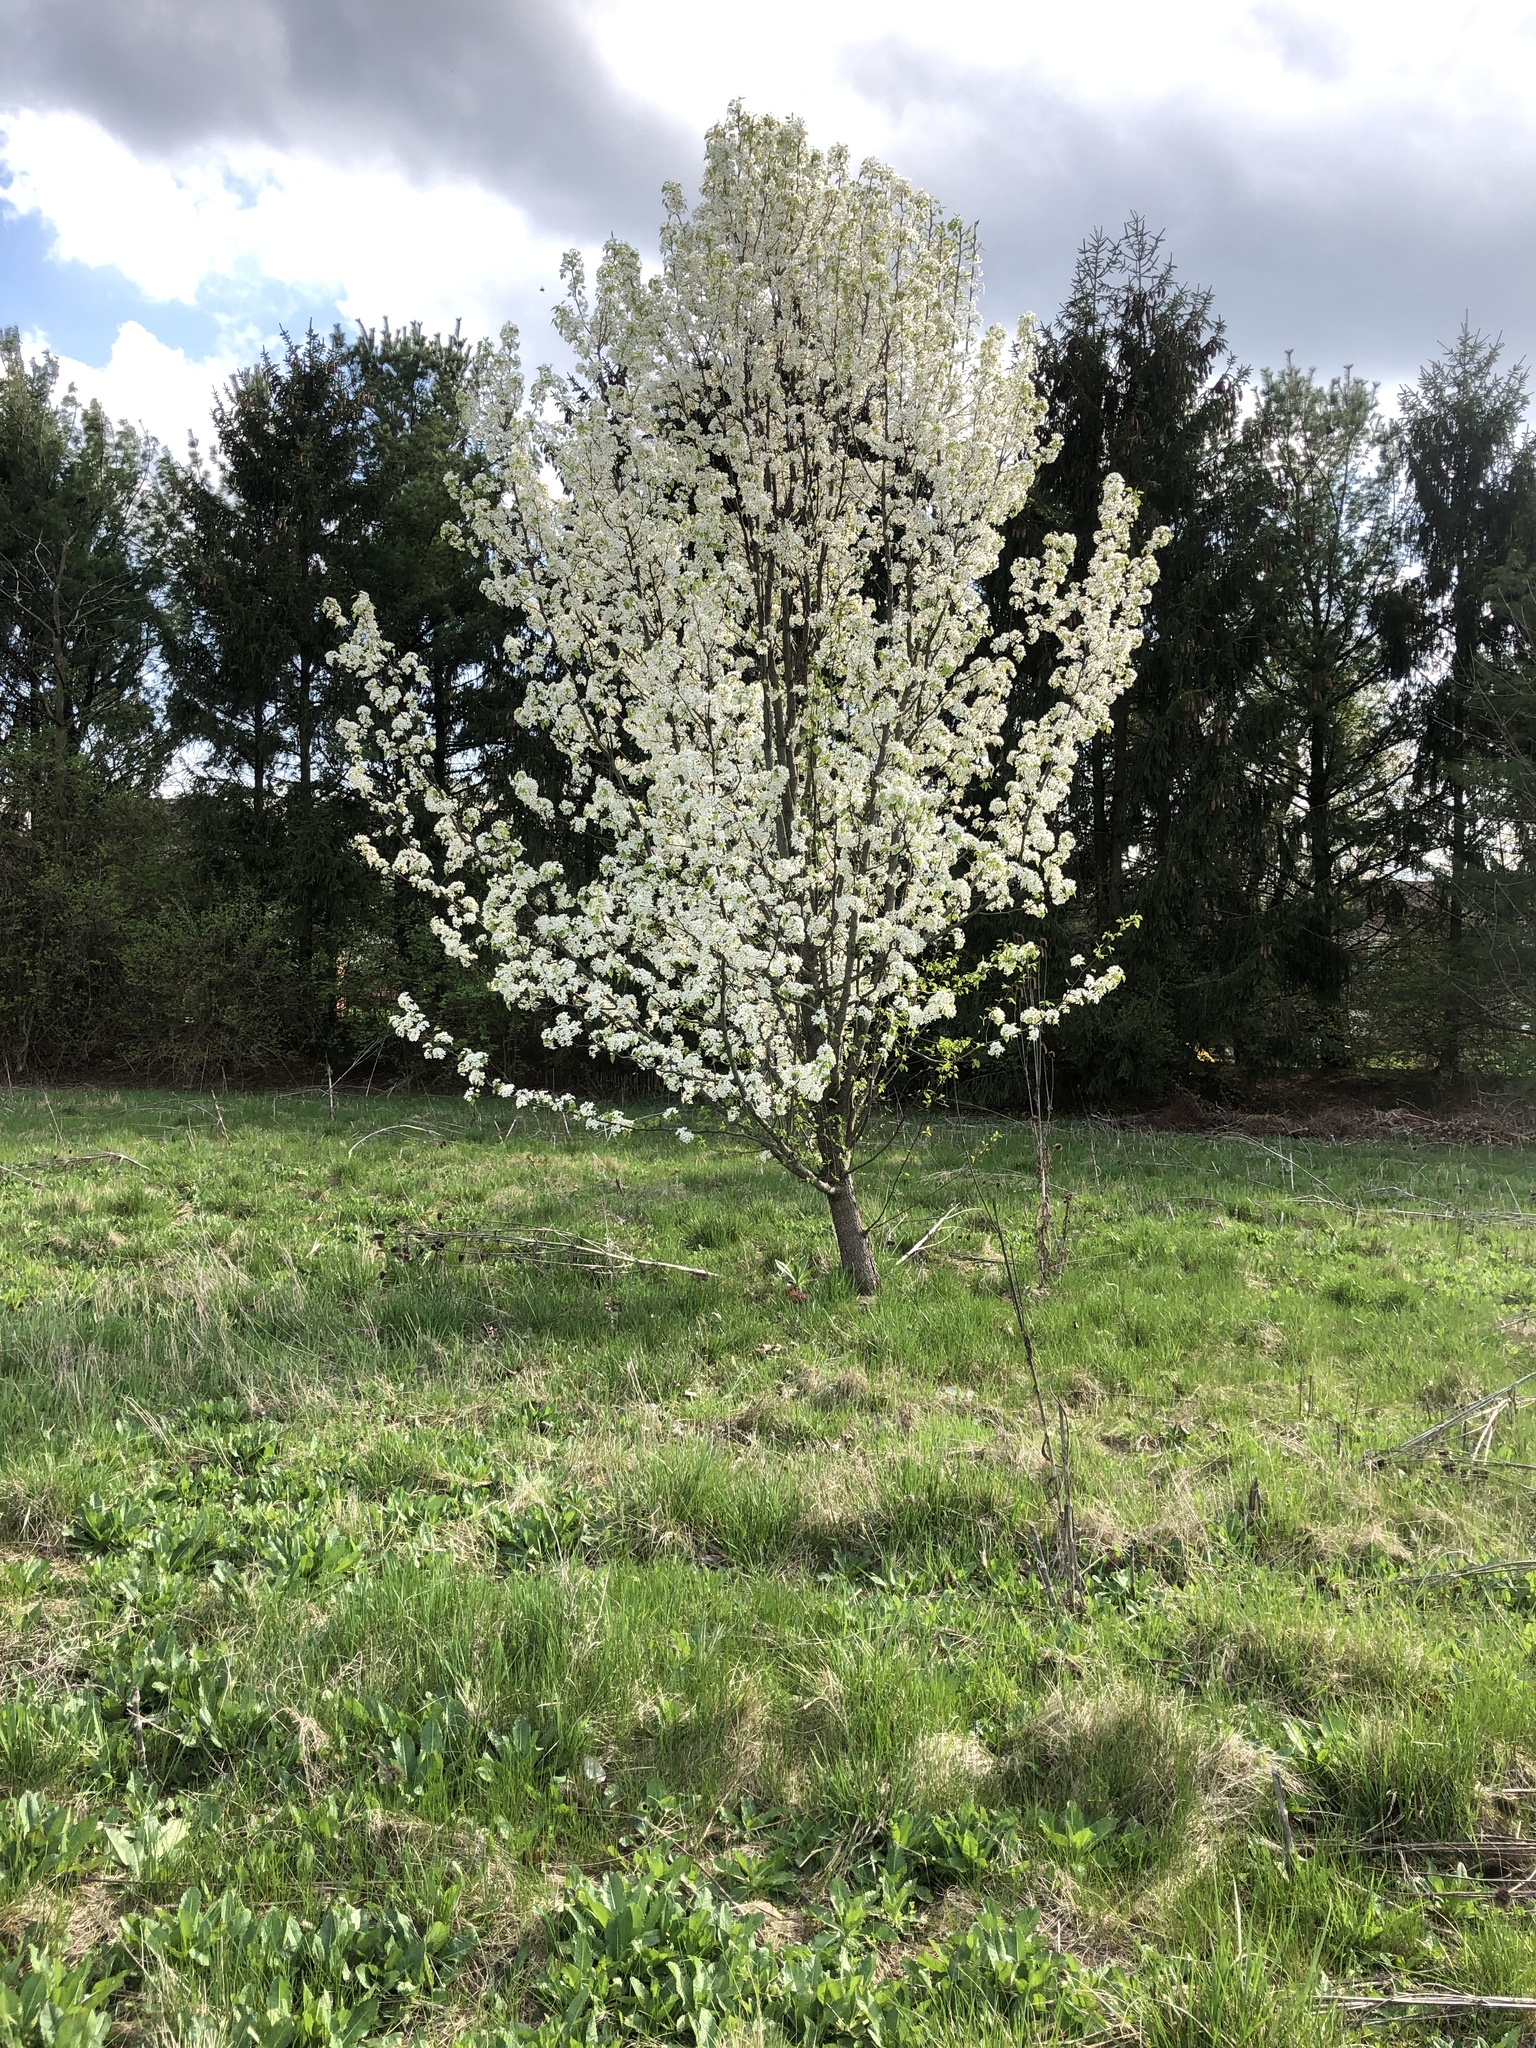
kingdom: Plantae
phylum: Tracheophyta
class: Magnoliopsida
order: Rosales
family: Rosaceae
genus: Pyrus
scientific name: Pyrus calleryana
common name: Callery pear
